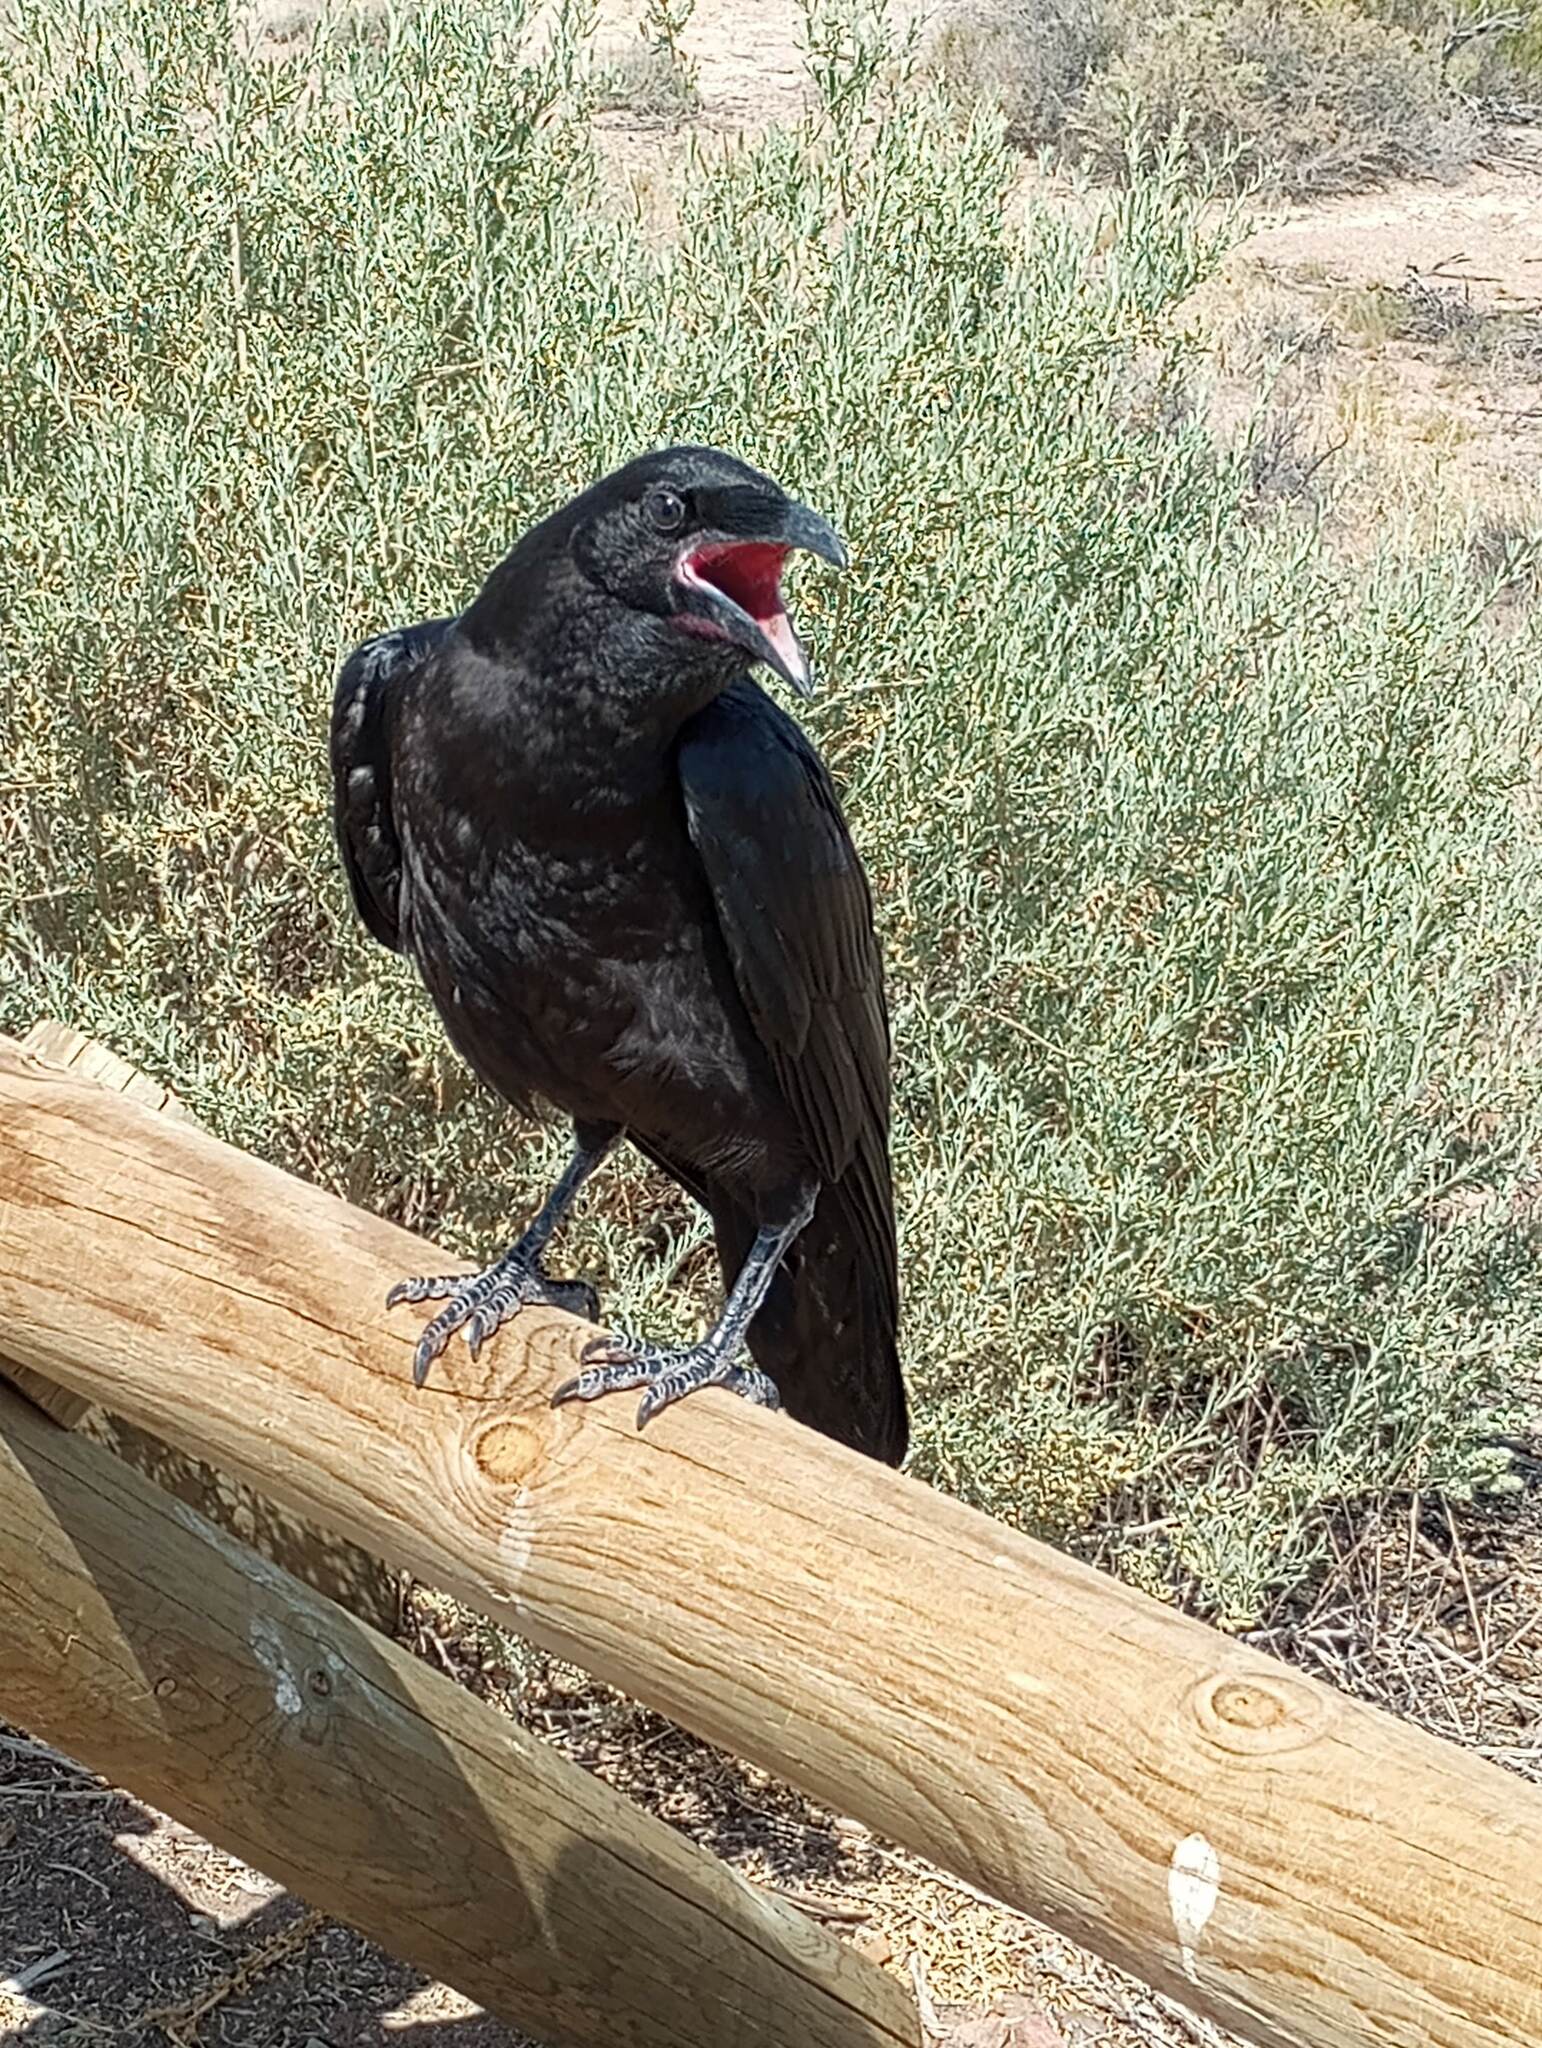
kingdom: Animalia
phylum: Chordata
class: Aves
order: Passeriformes
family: Corvidae
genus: Corvus
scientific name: Corvus corax
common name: Common raven
